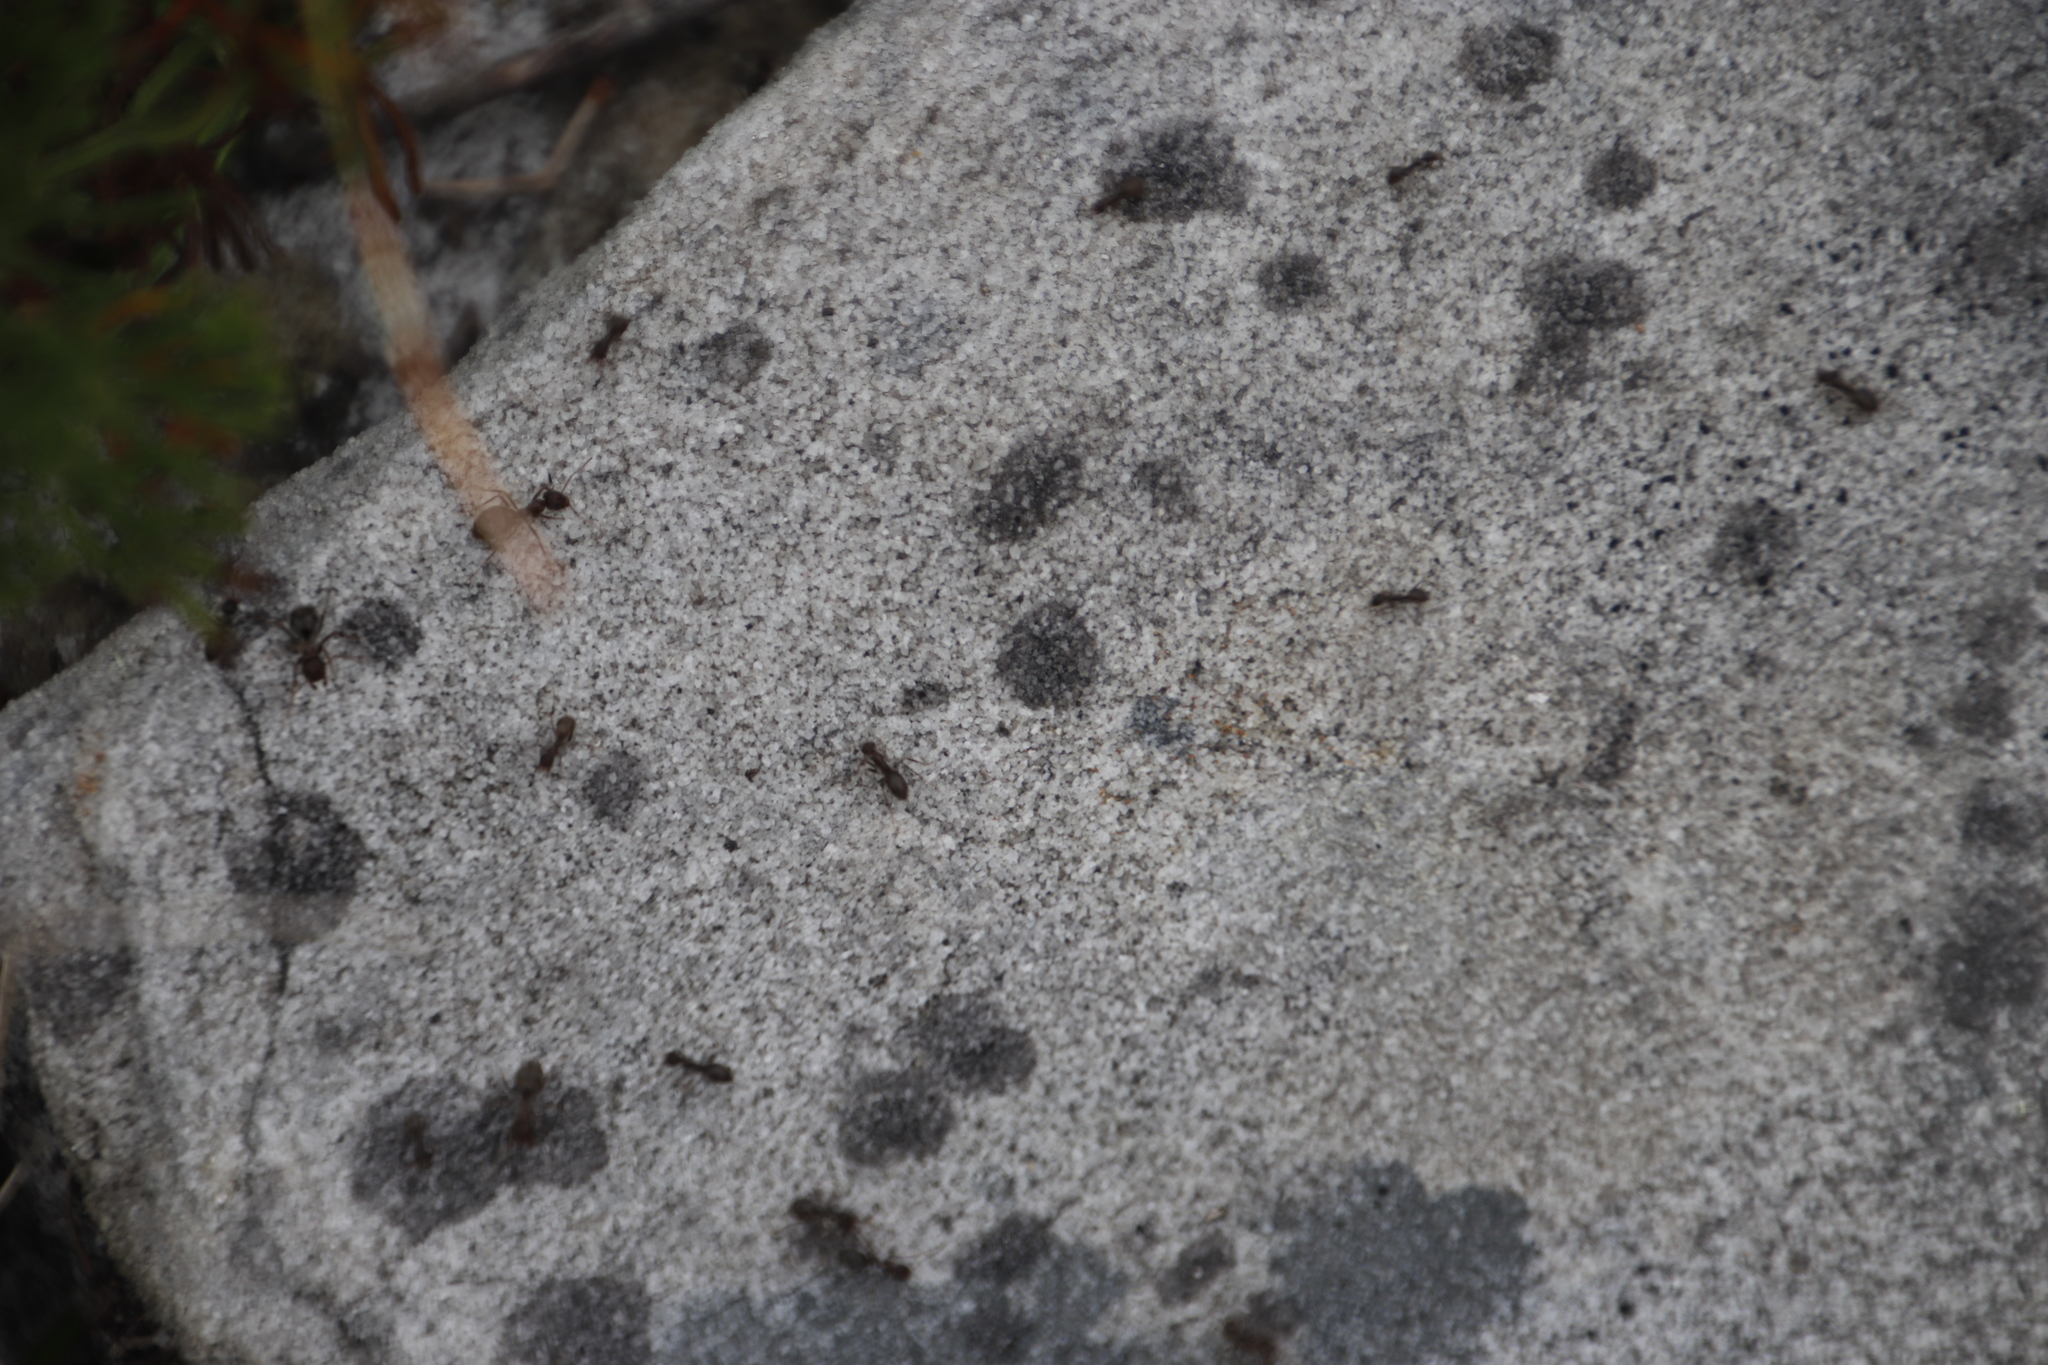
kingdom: Animalia
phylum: Arthropoda
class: Insecta
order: Hymenoptera
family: Formicidae
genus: Anoplolepis
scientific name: Anoplolepis steingroeveri
